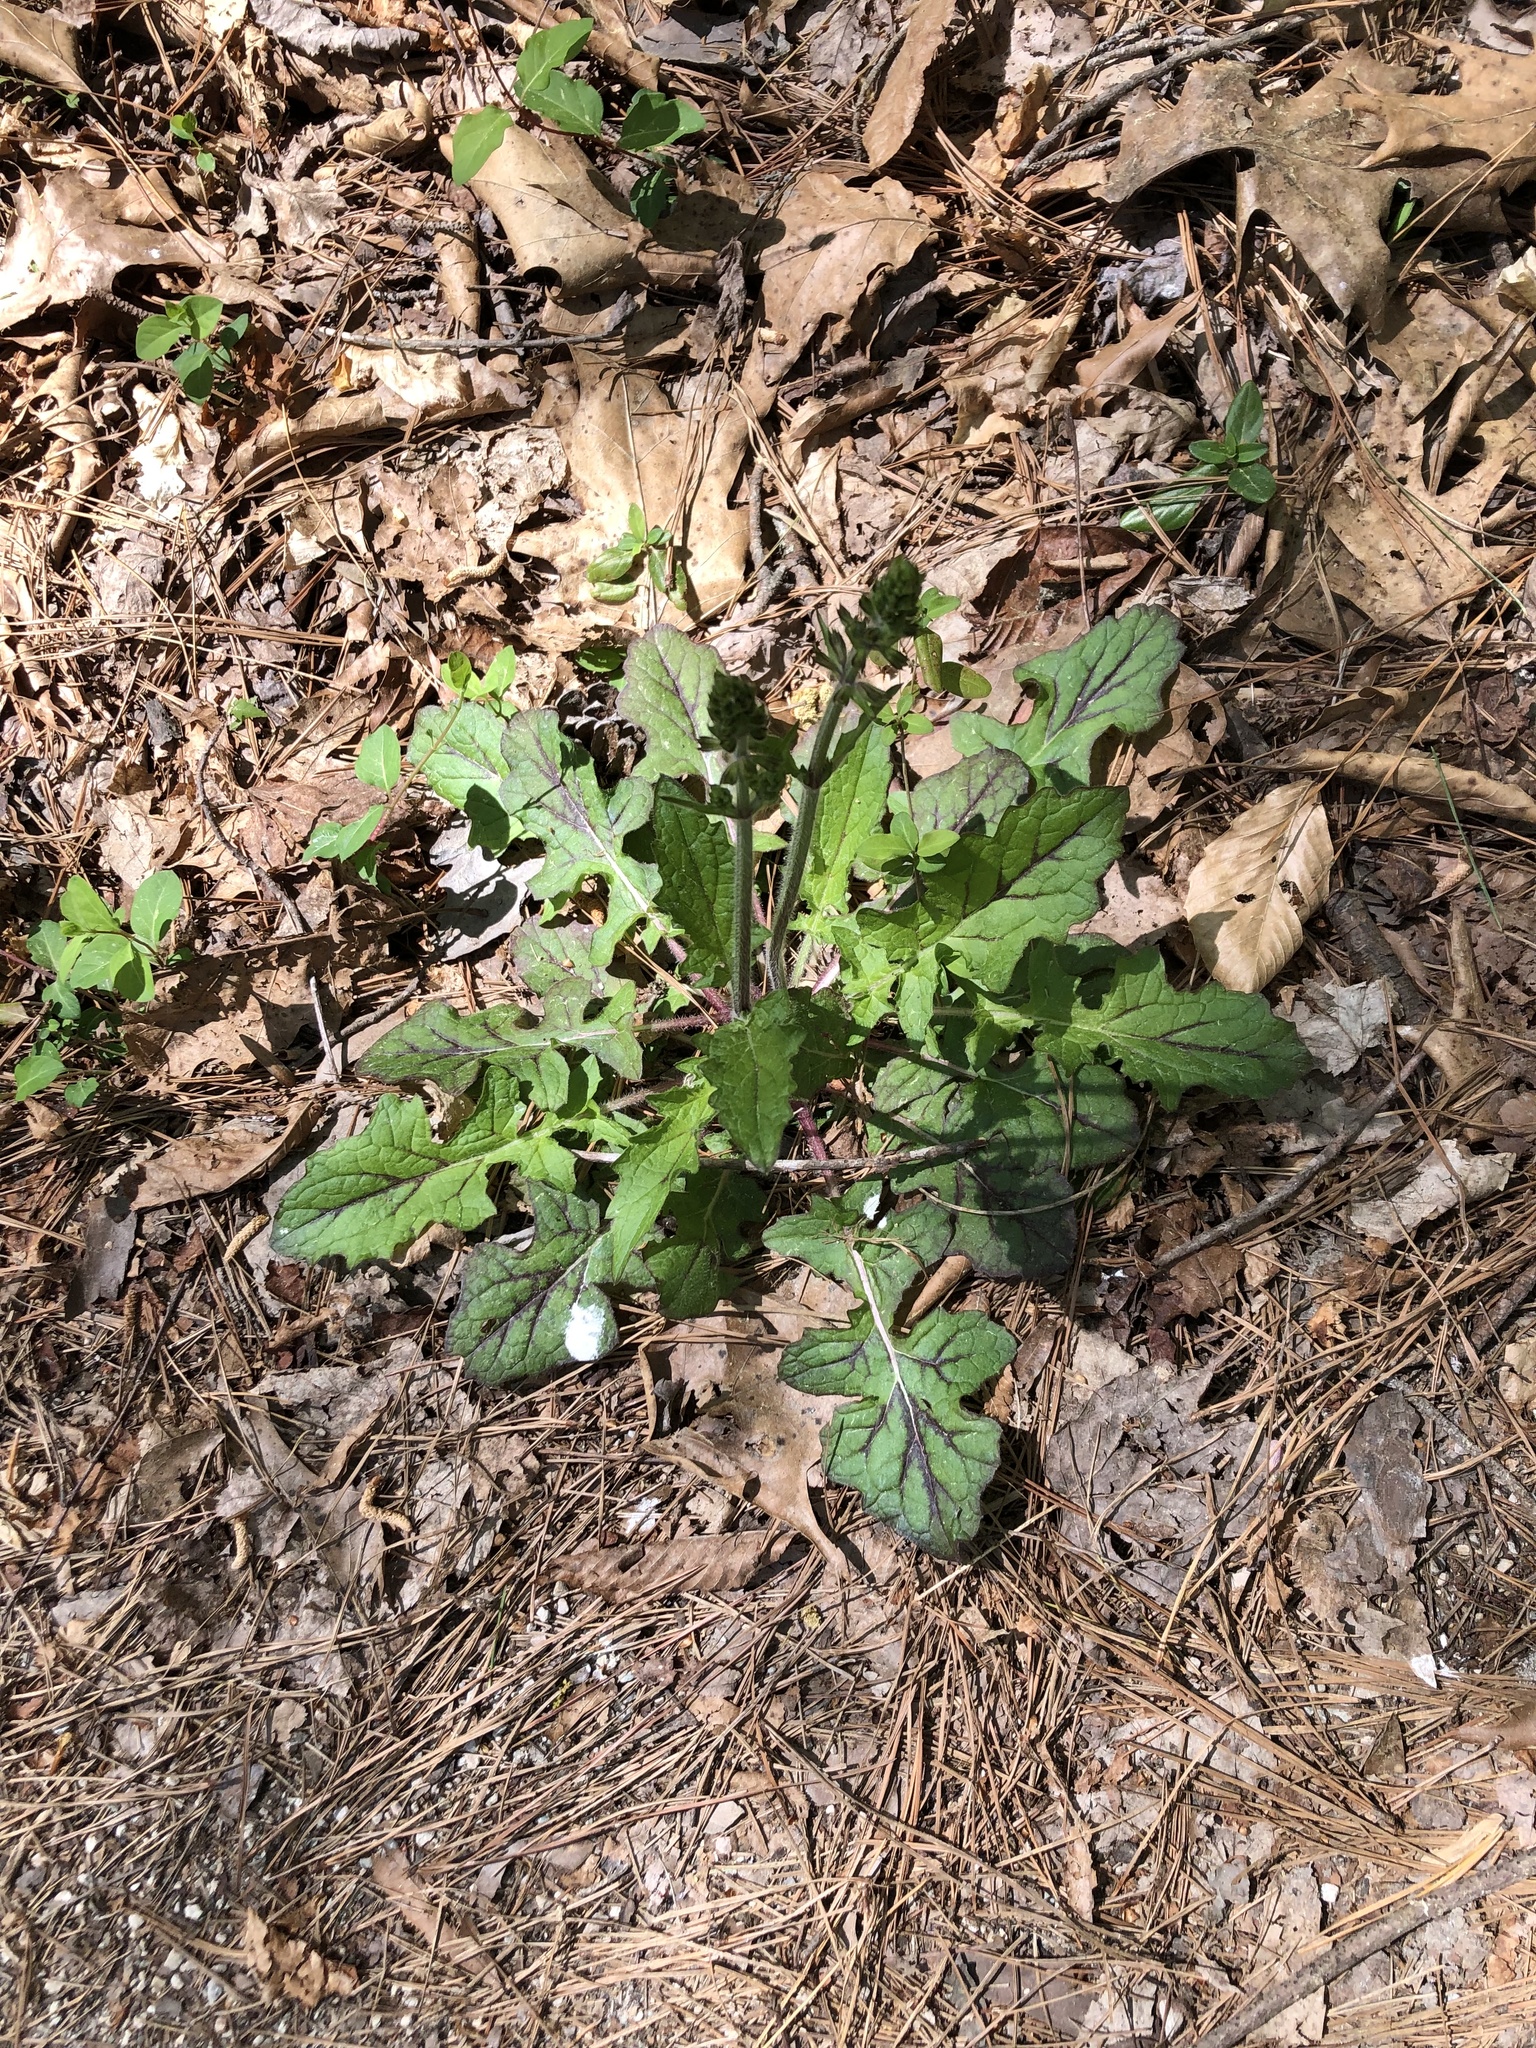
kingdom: Plantae
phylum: Tracheophyta
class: Magnoliopsida
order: Lamiales
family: Lamiaceae
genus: Salvia
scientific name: Salvia lyrata
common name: Cancerweed
